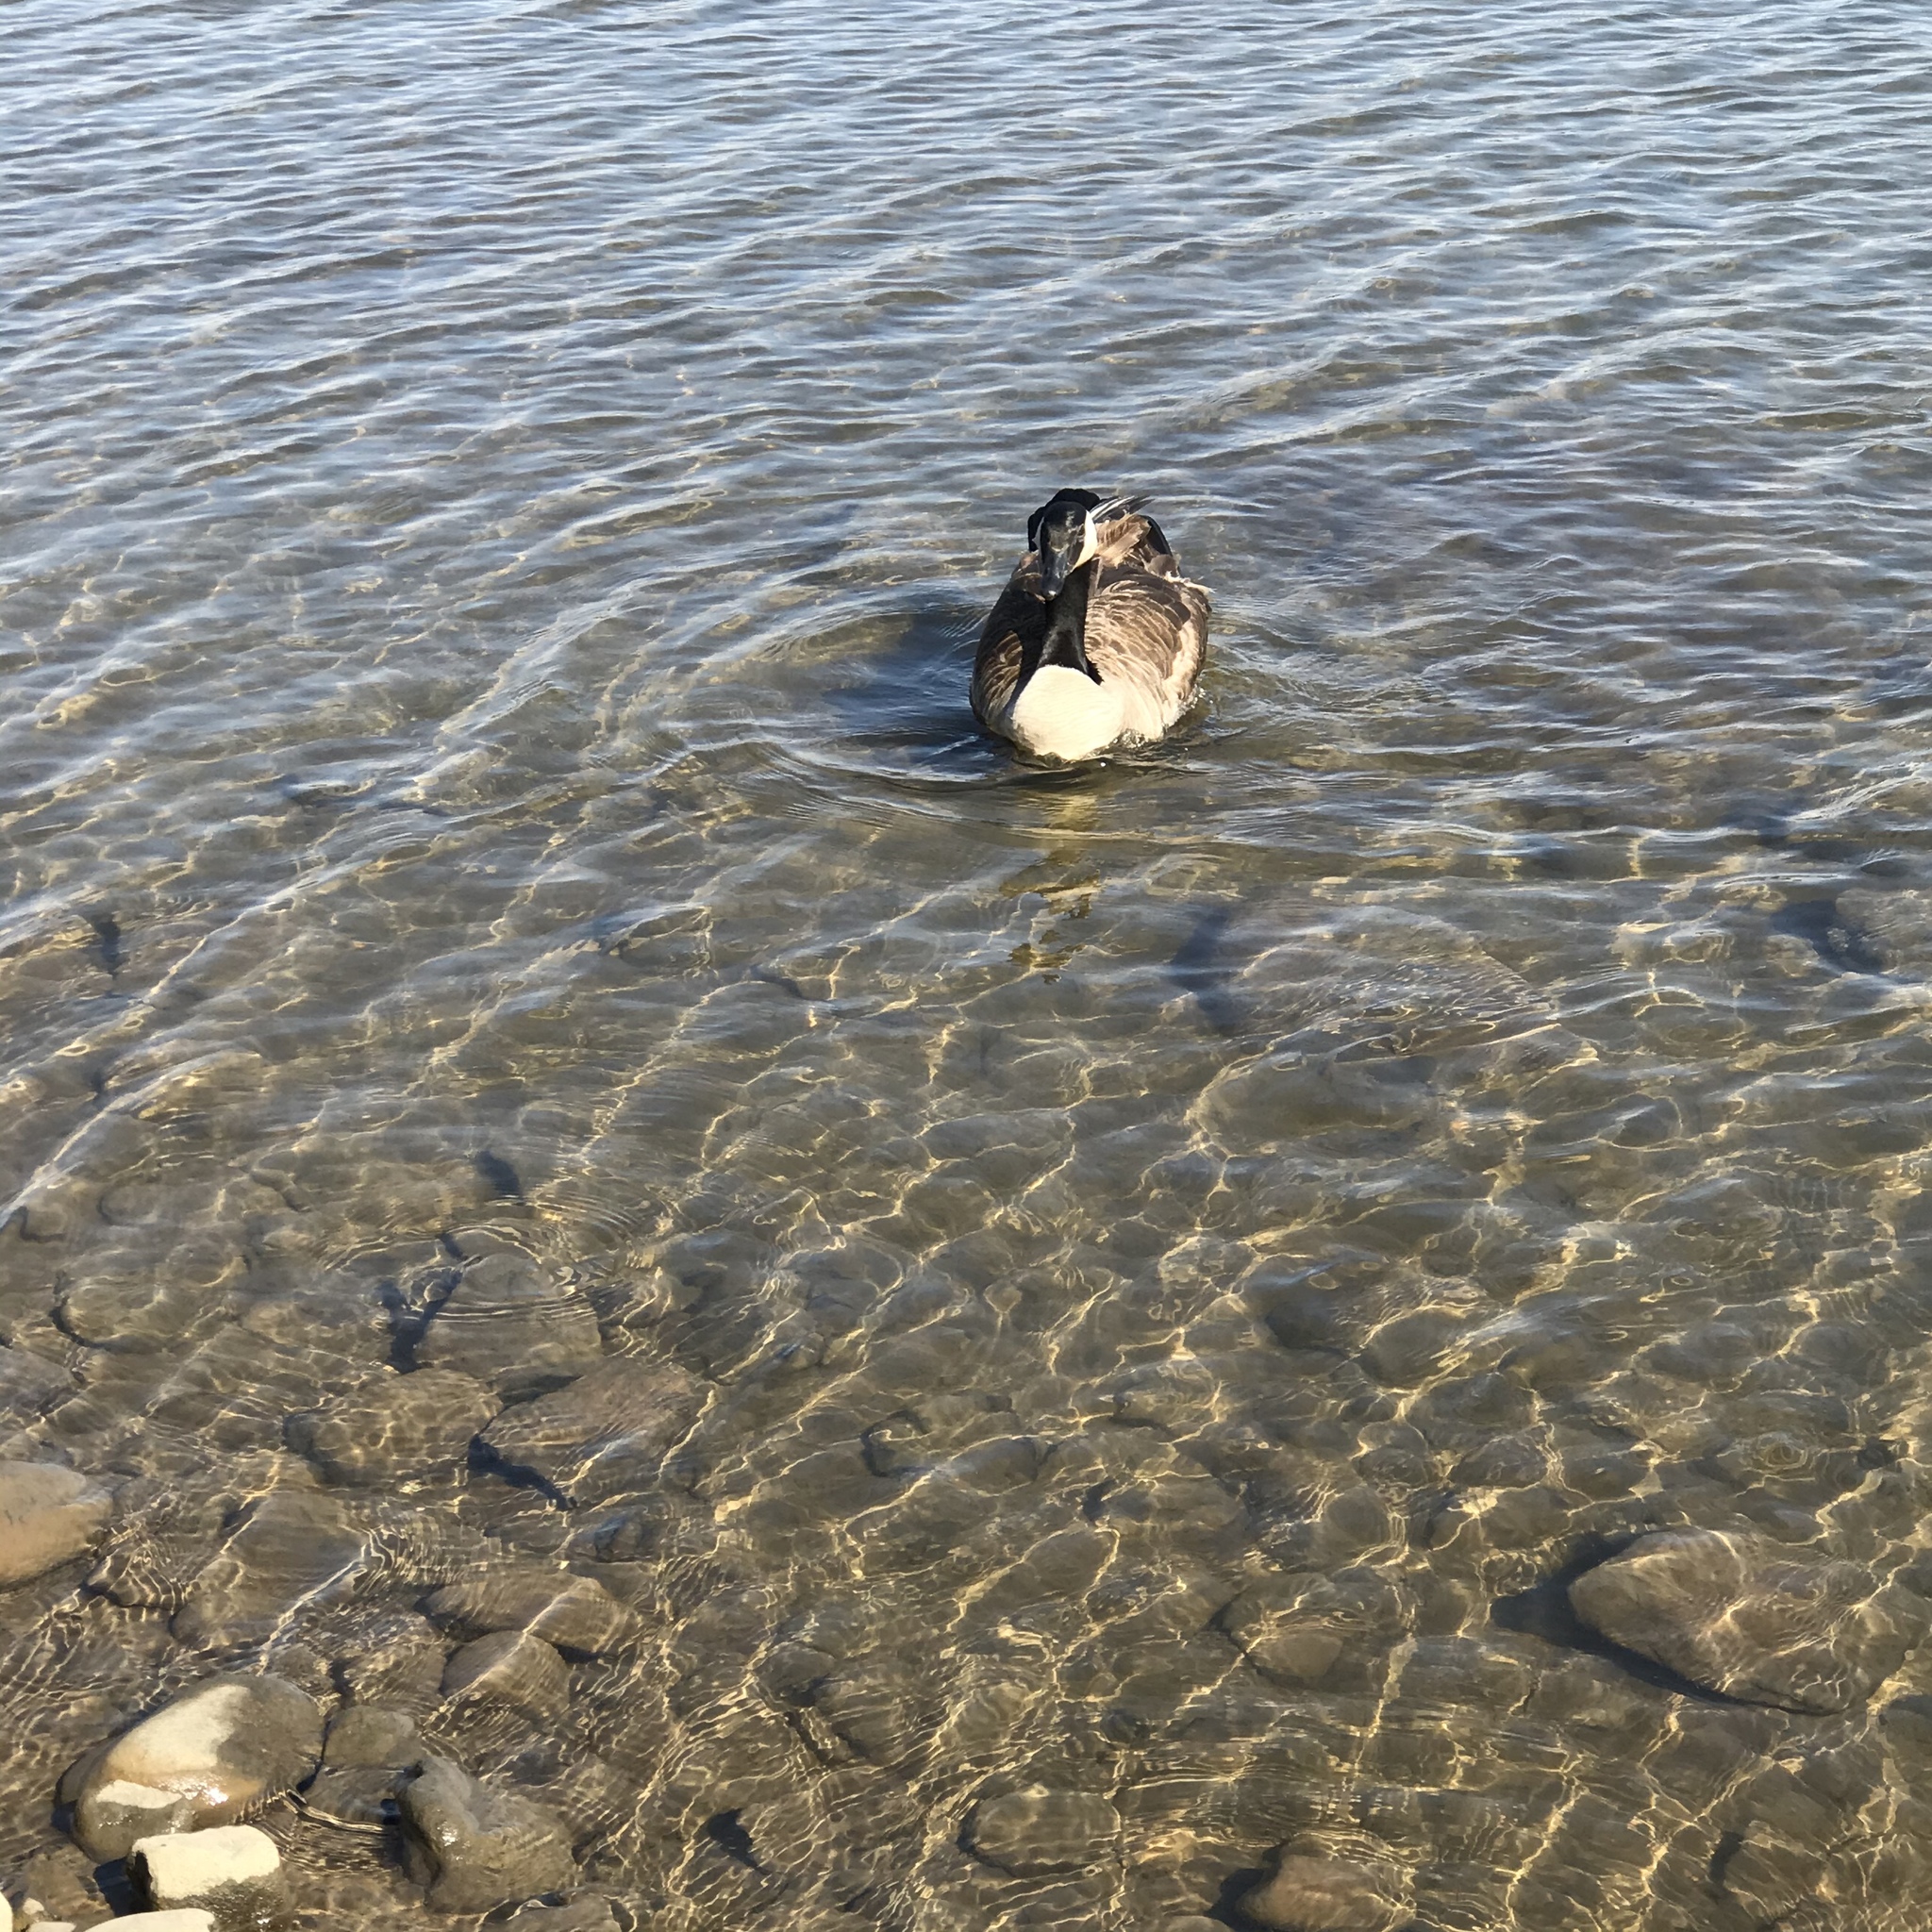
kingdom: Animalia
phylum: Chordata
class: Aves
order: Anseriformes
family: Anatidae
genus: Branta
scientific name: Branta canadensis
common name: Canada goose
